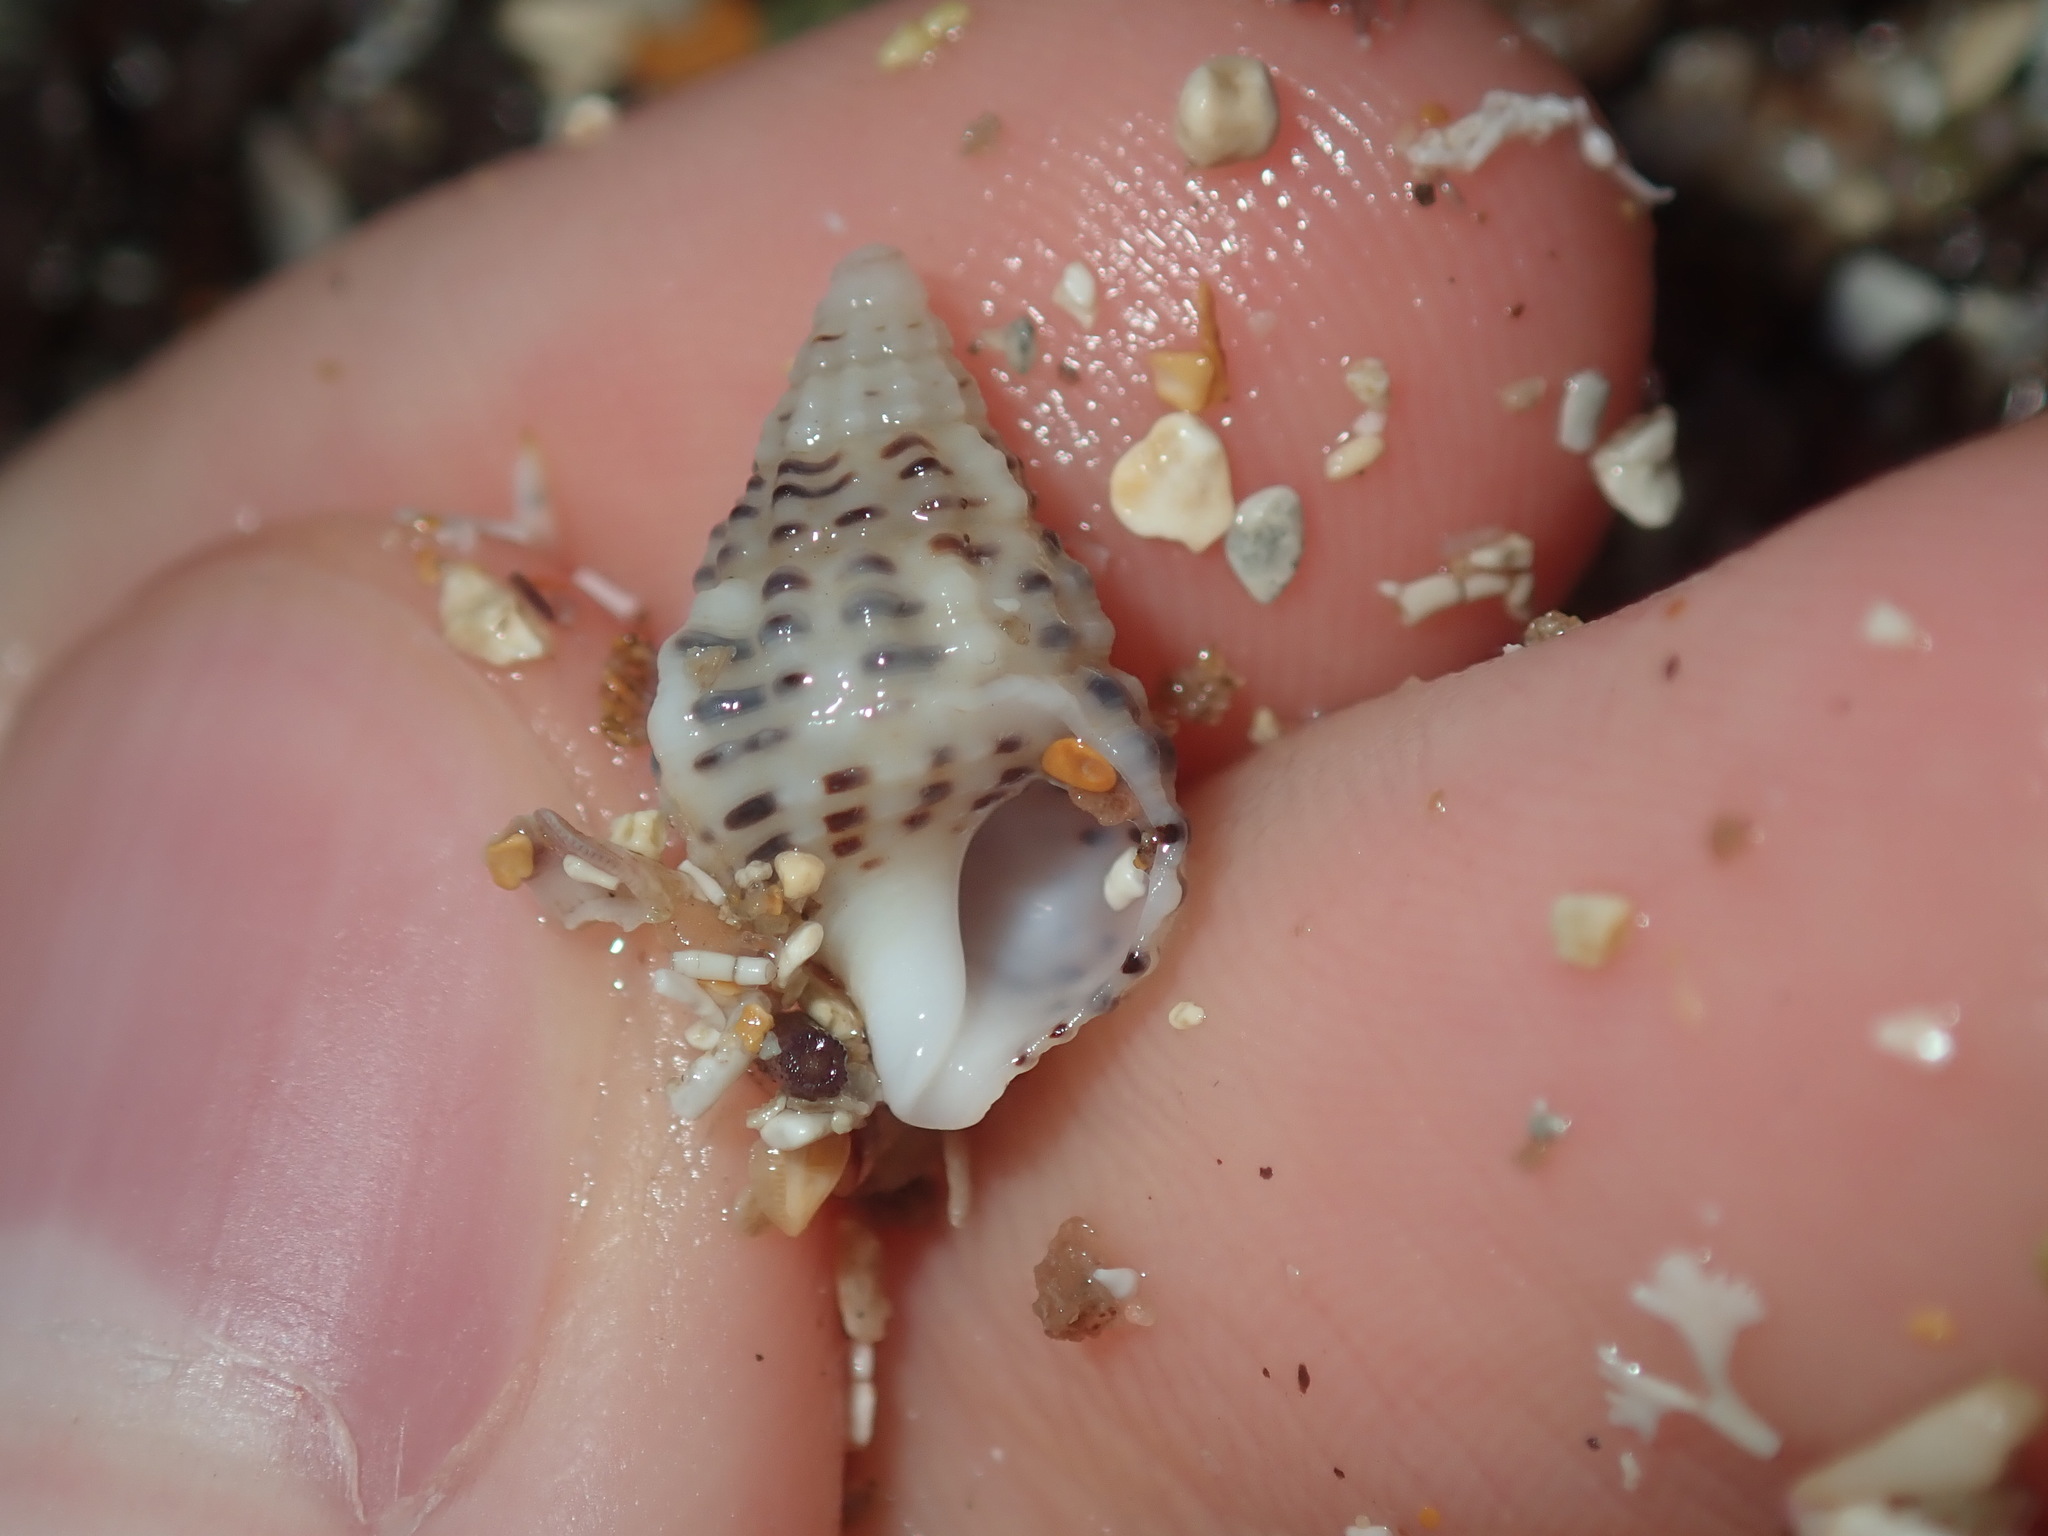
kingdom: Animalia
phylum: Mollusca
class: Gastropoda
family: Cerithiidae
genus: Clypeomorus
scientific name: Clypeomorus petrosa
